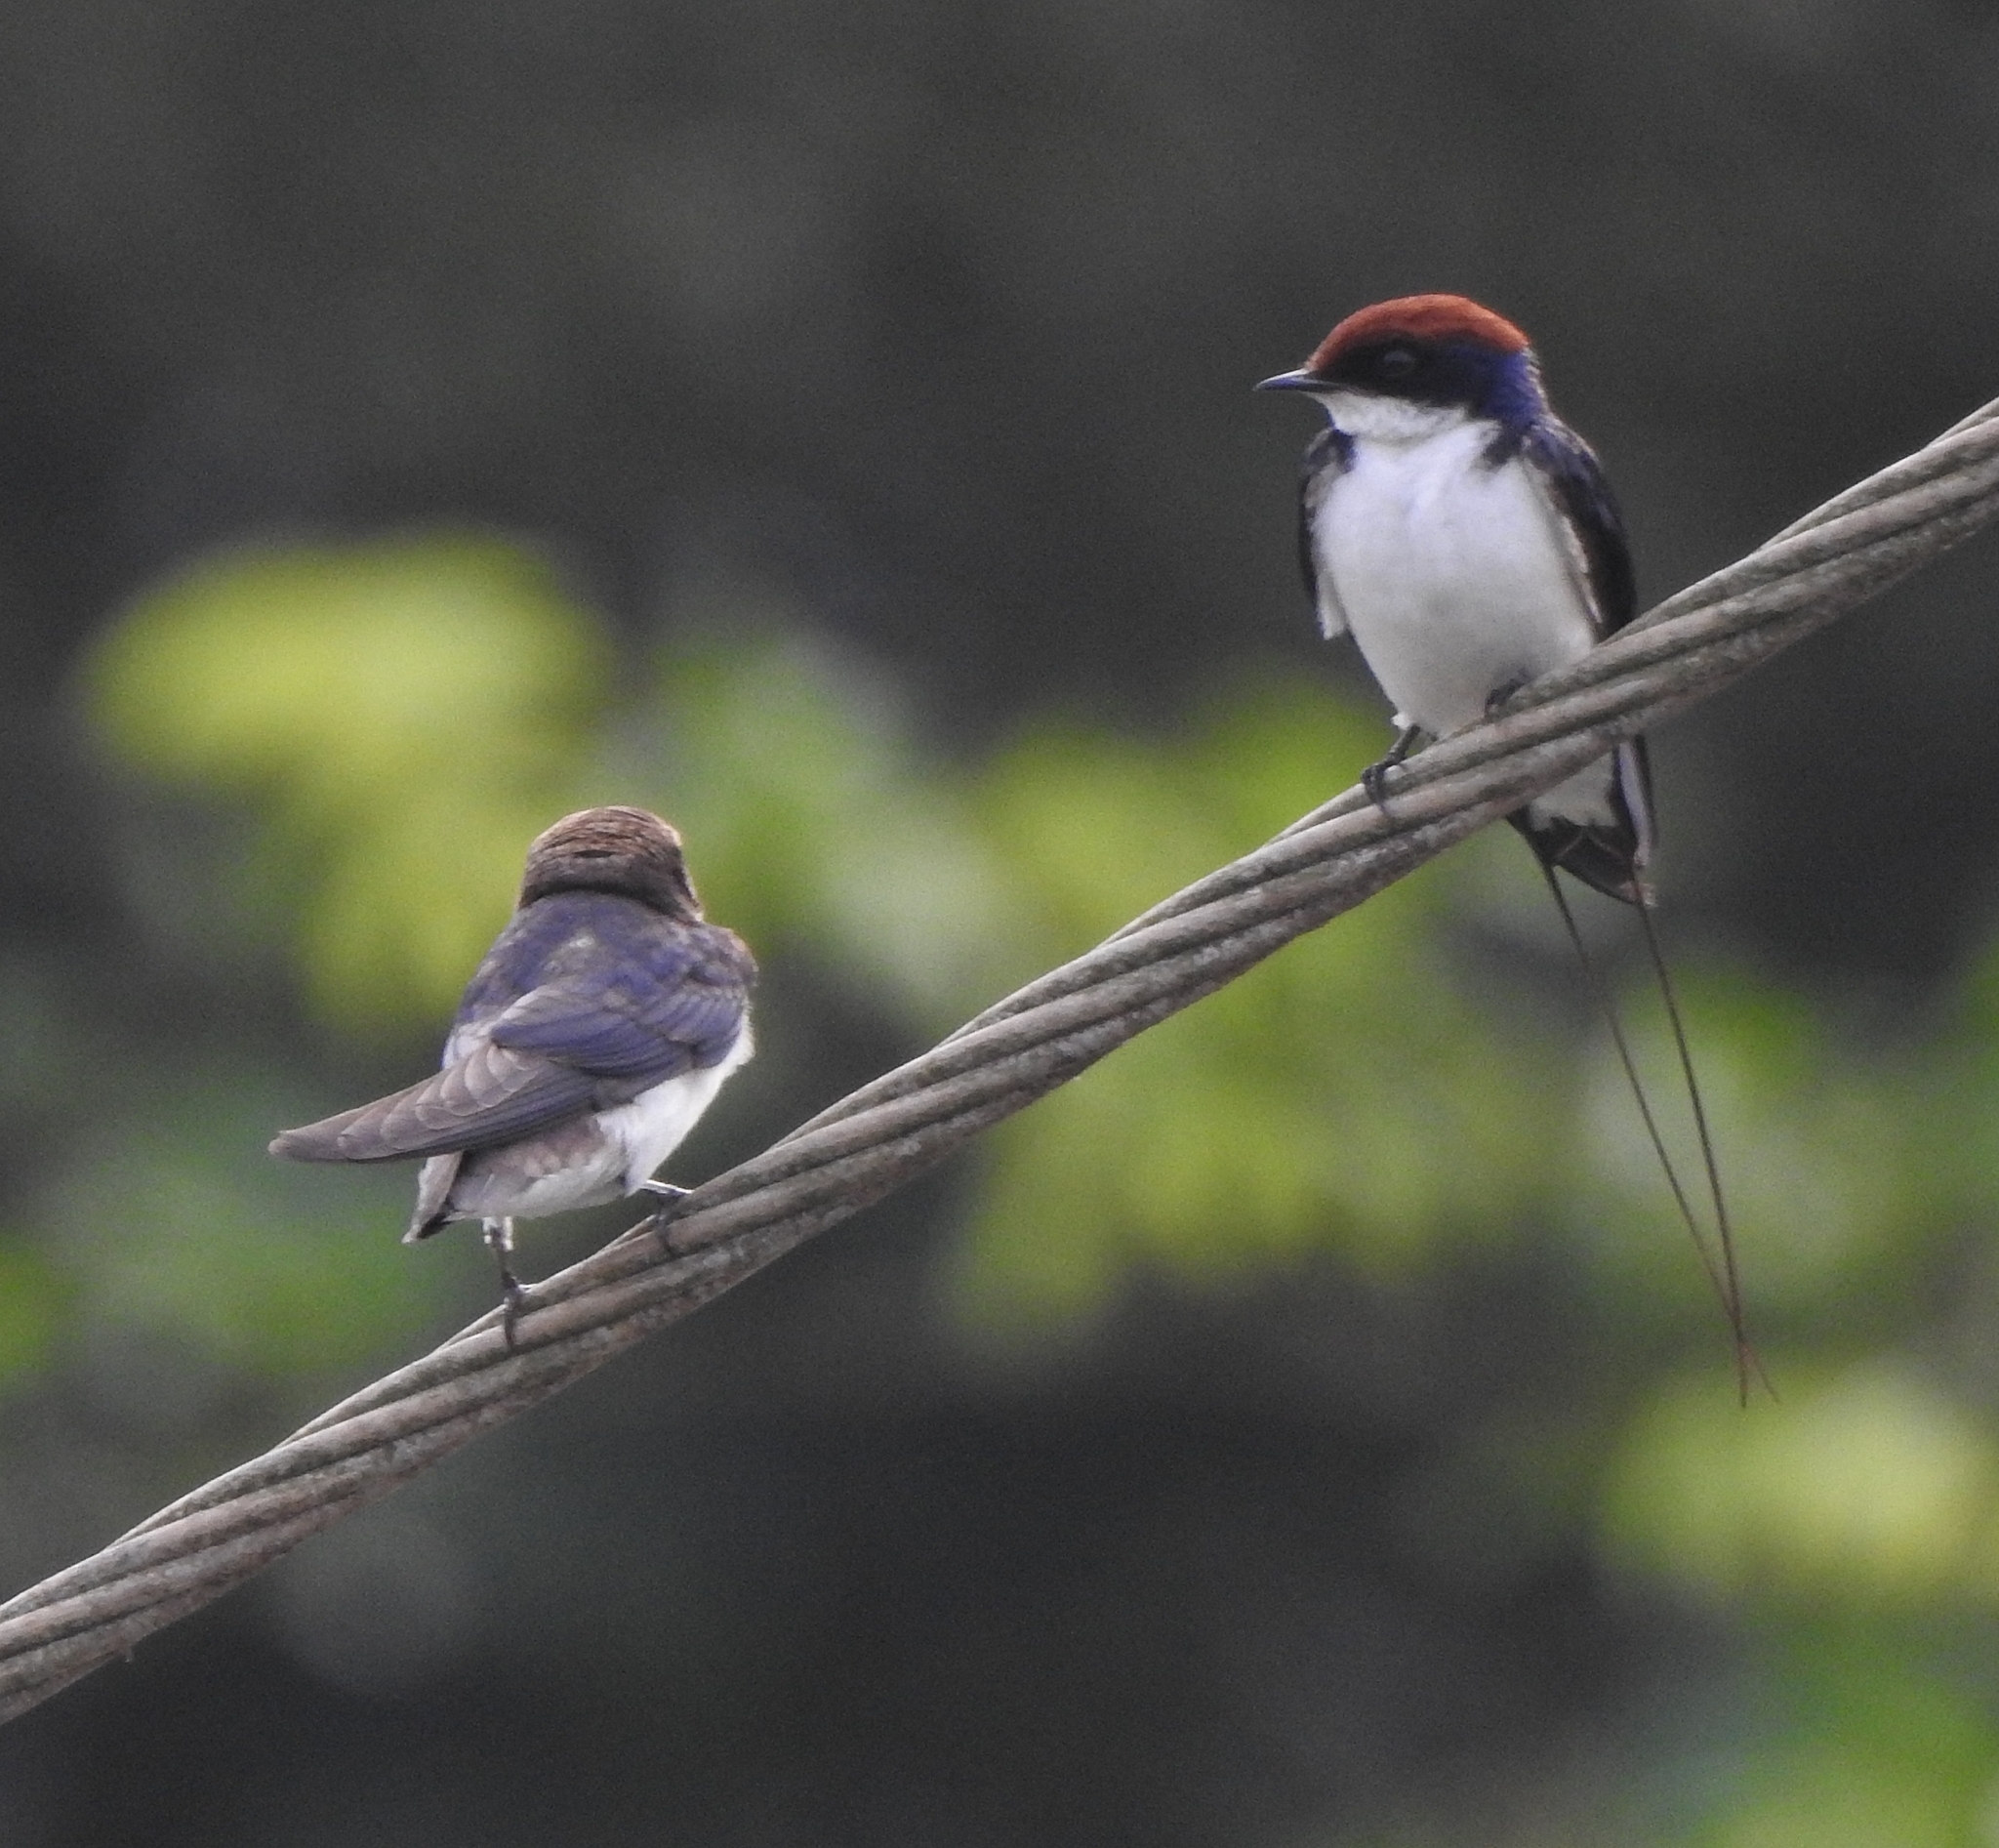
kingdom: Animalia
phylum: Chordata
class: Aves
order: Passeriformes
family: Hirundinidae
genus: Hirundo
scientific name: Hirundo smithii
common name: Wire-tailed swallow
